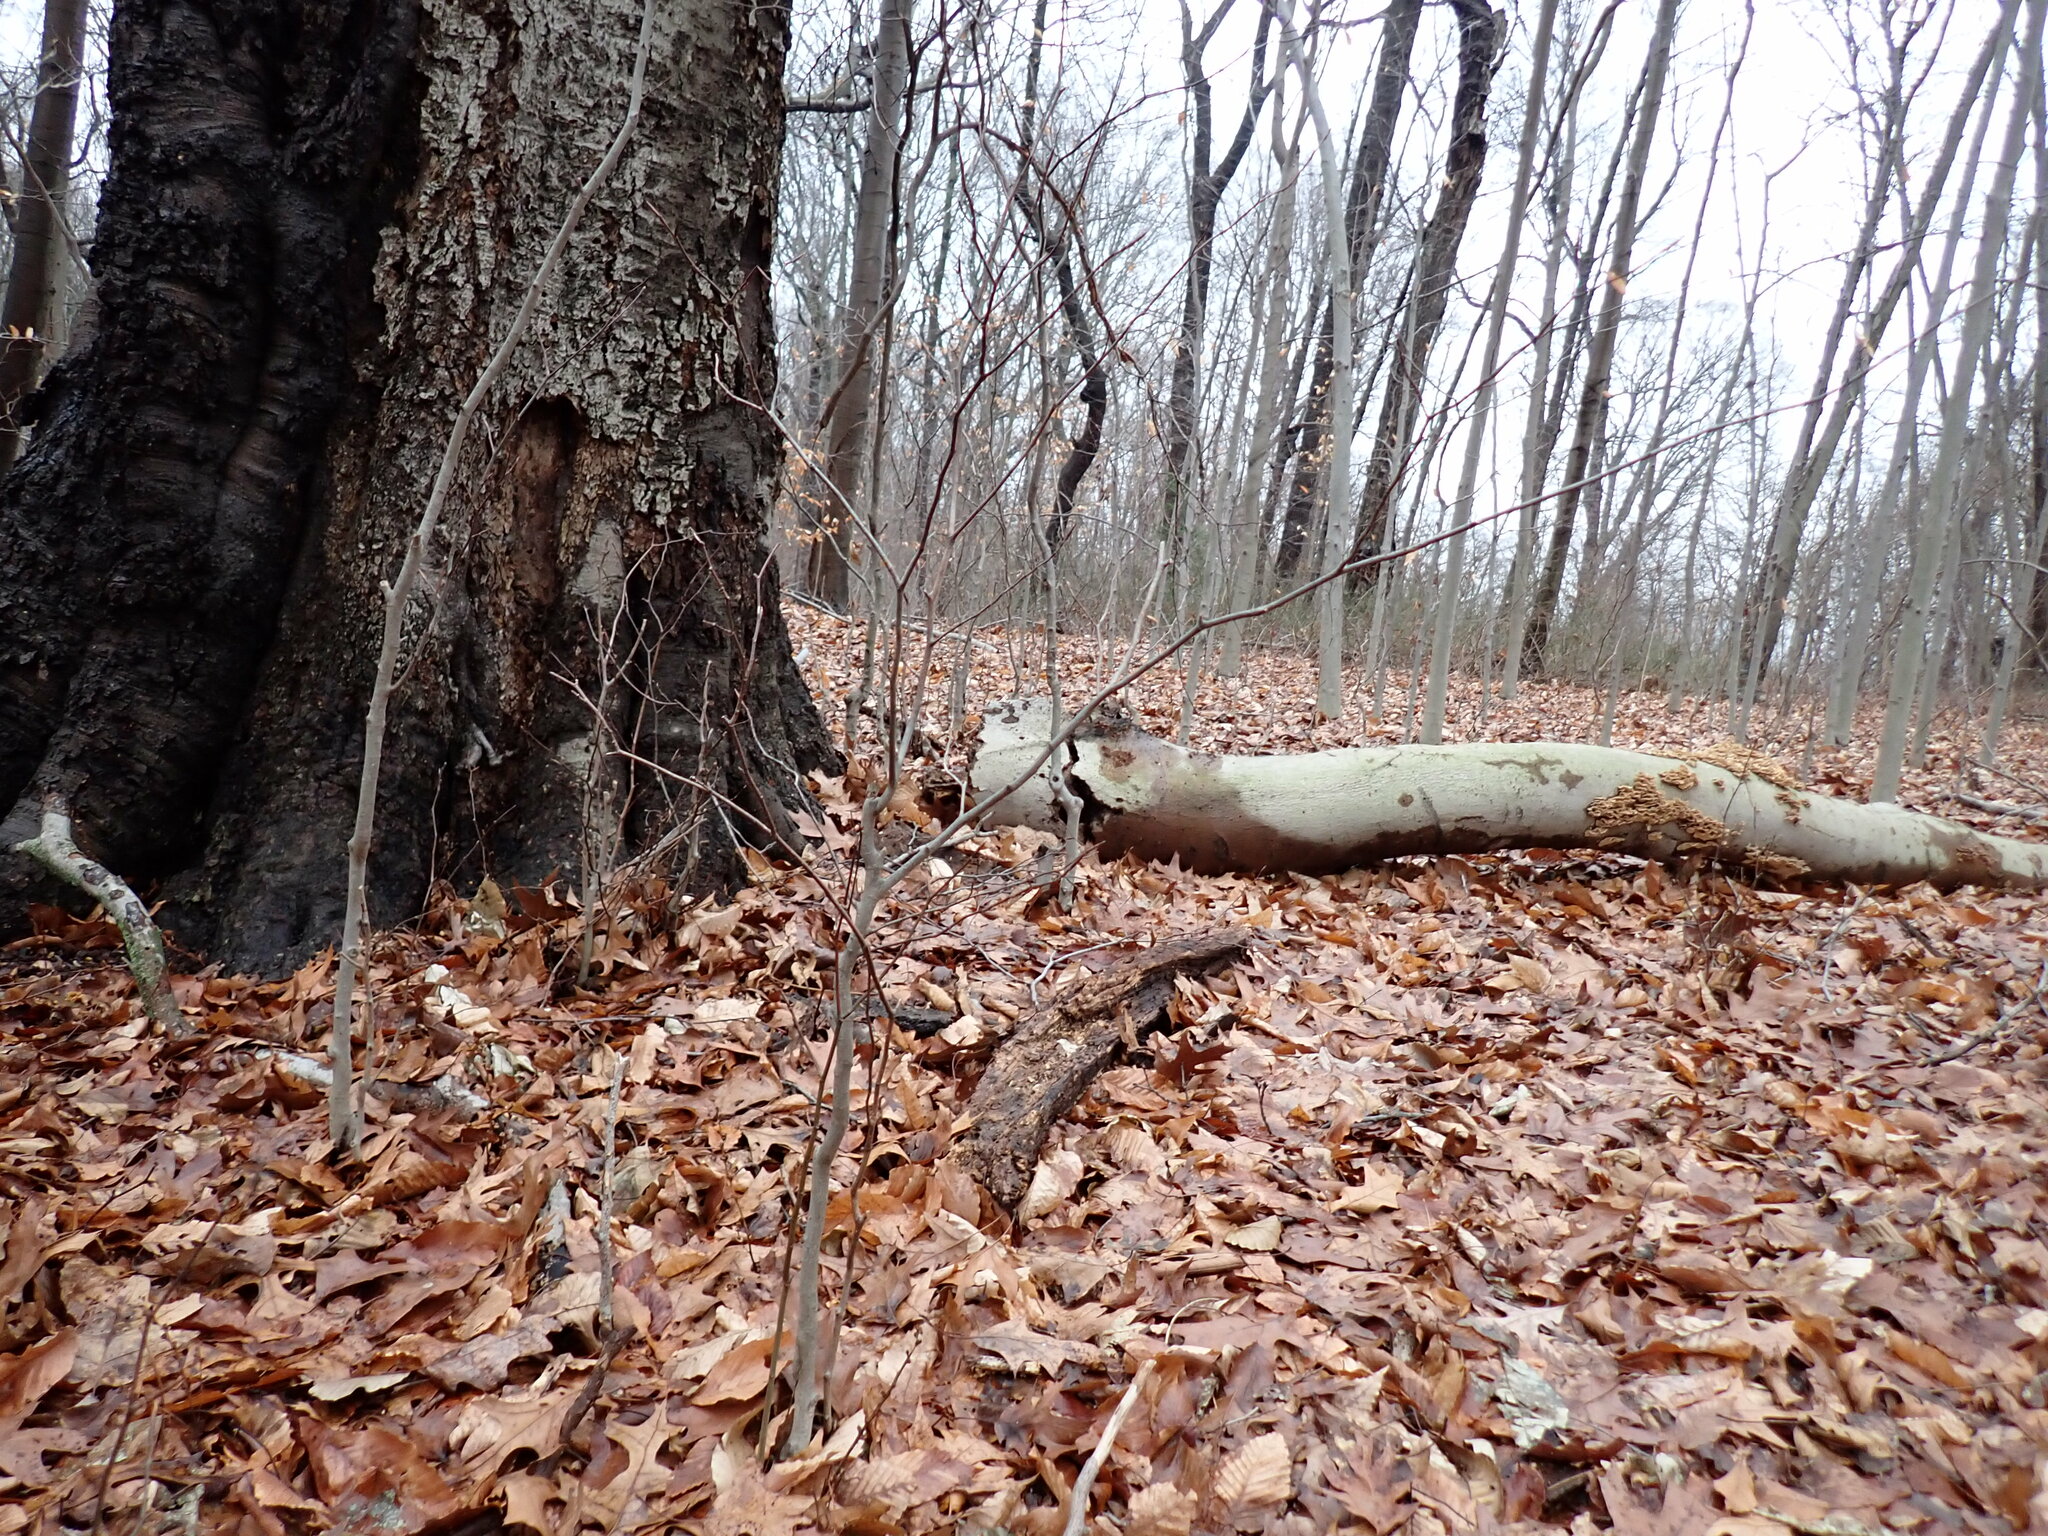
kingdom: Plantae
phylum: Tracheophyta
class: Magnoliopsida
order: Fagales
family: Fagaceae
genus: Fagus
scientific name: Fagus grandifolia
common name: American beech
